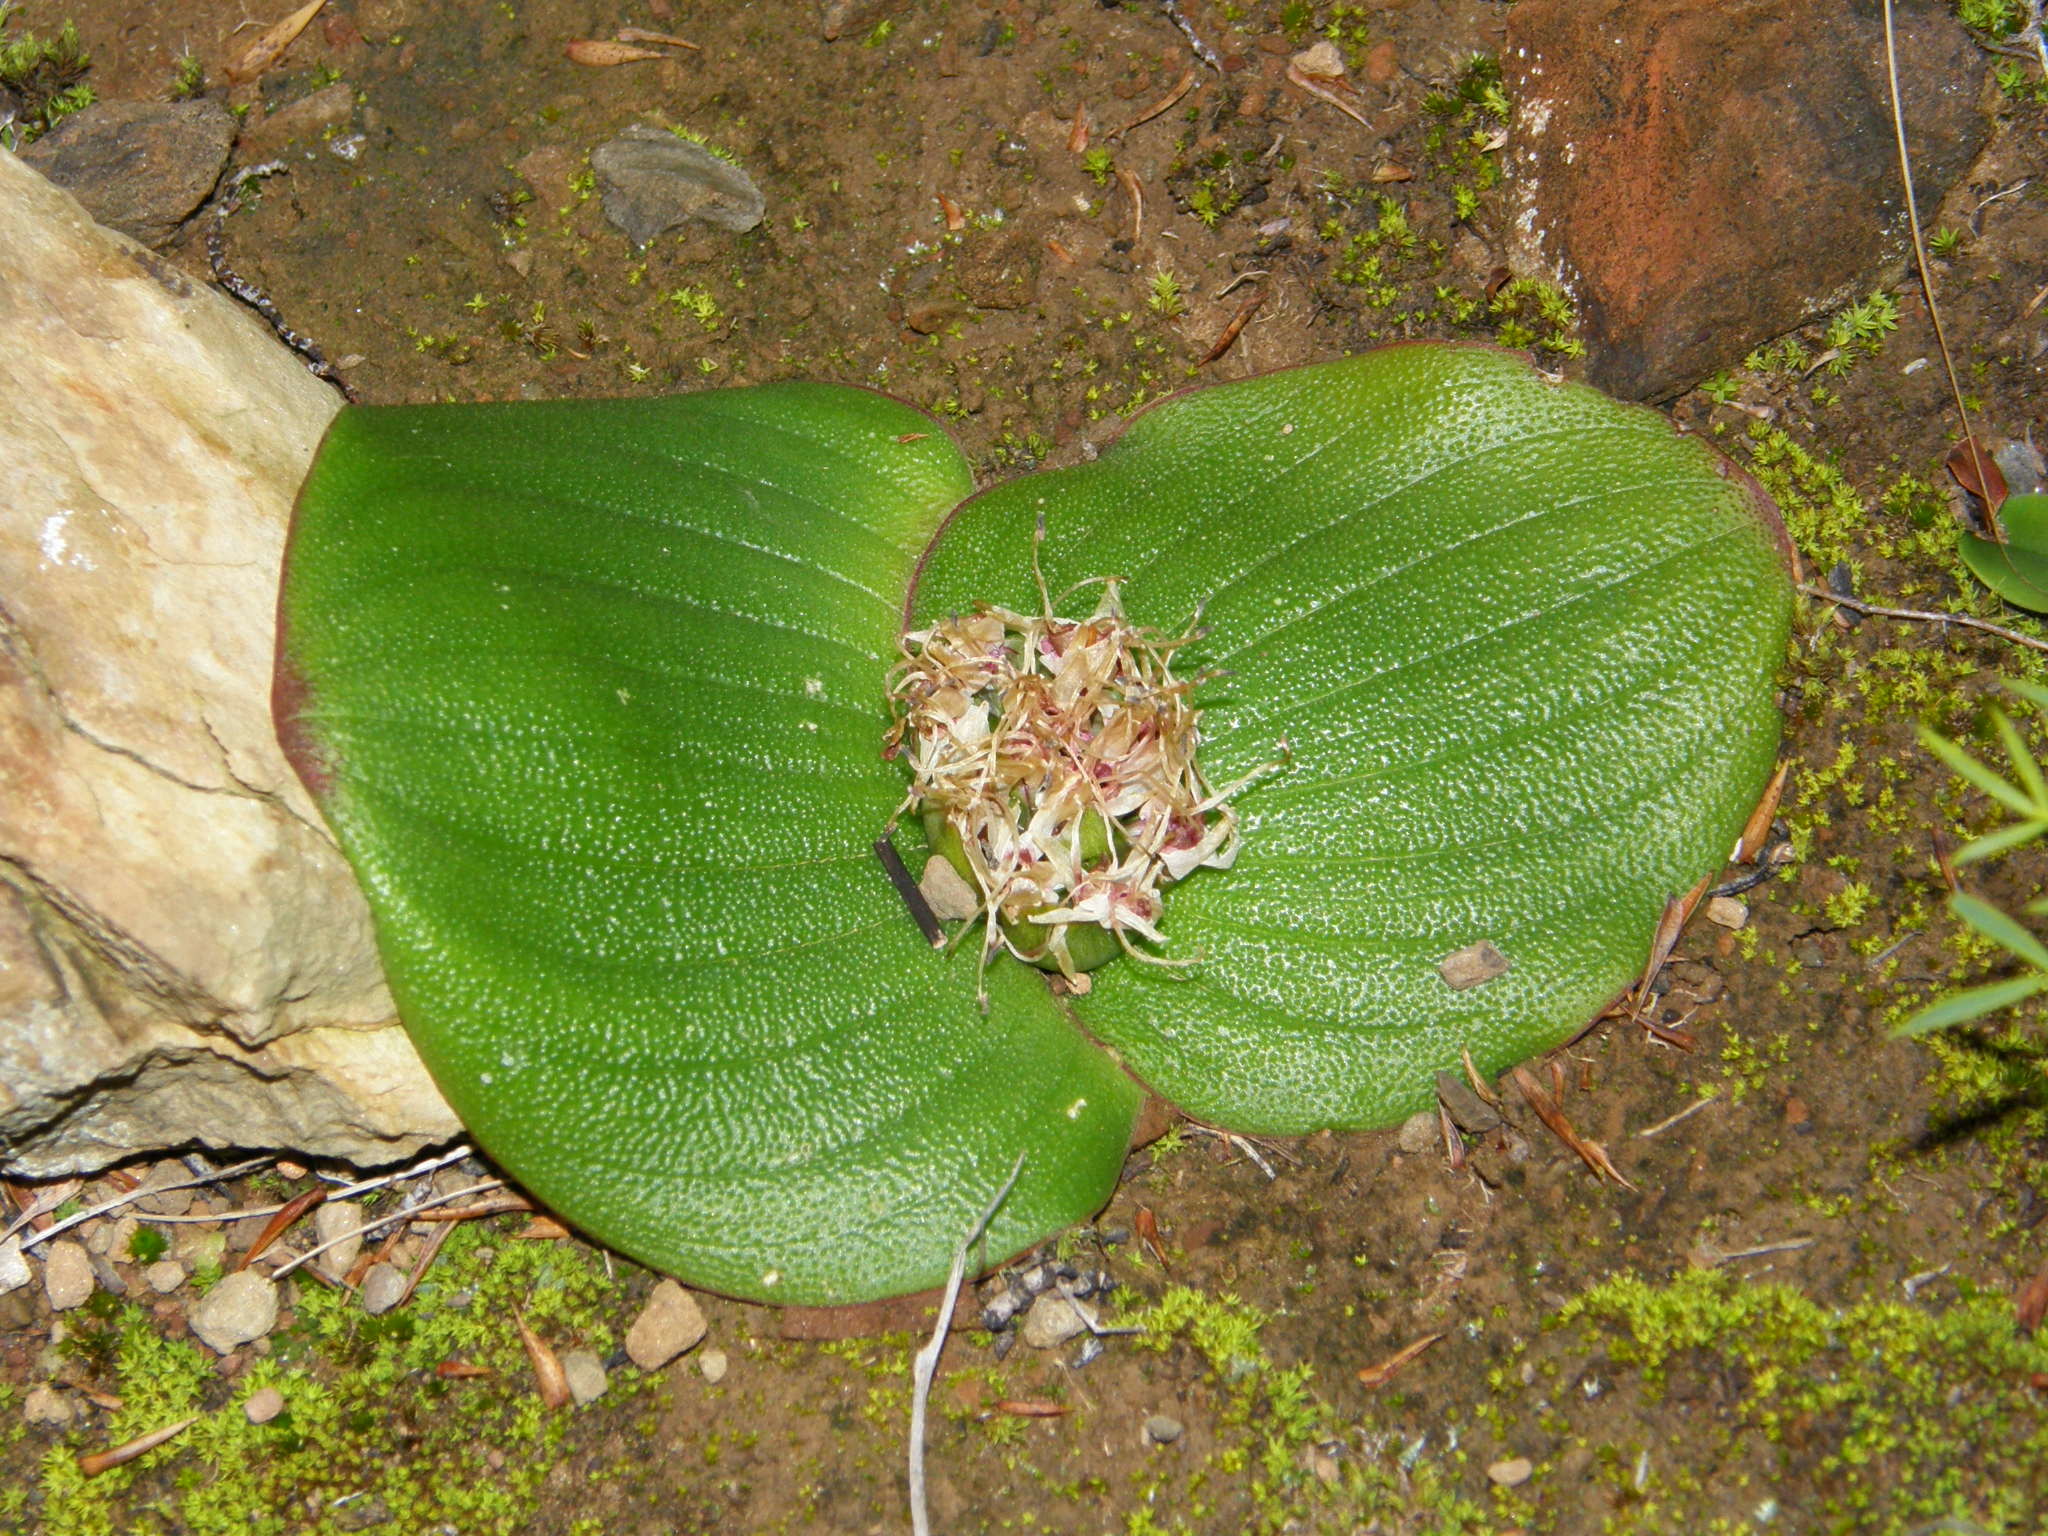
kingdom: Plantae
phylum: Tracheophyta
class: Liliopsida
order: Asparagales
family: Asparagaceae
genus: Massonia
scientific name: Massonia pustulata
